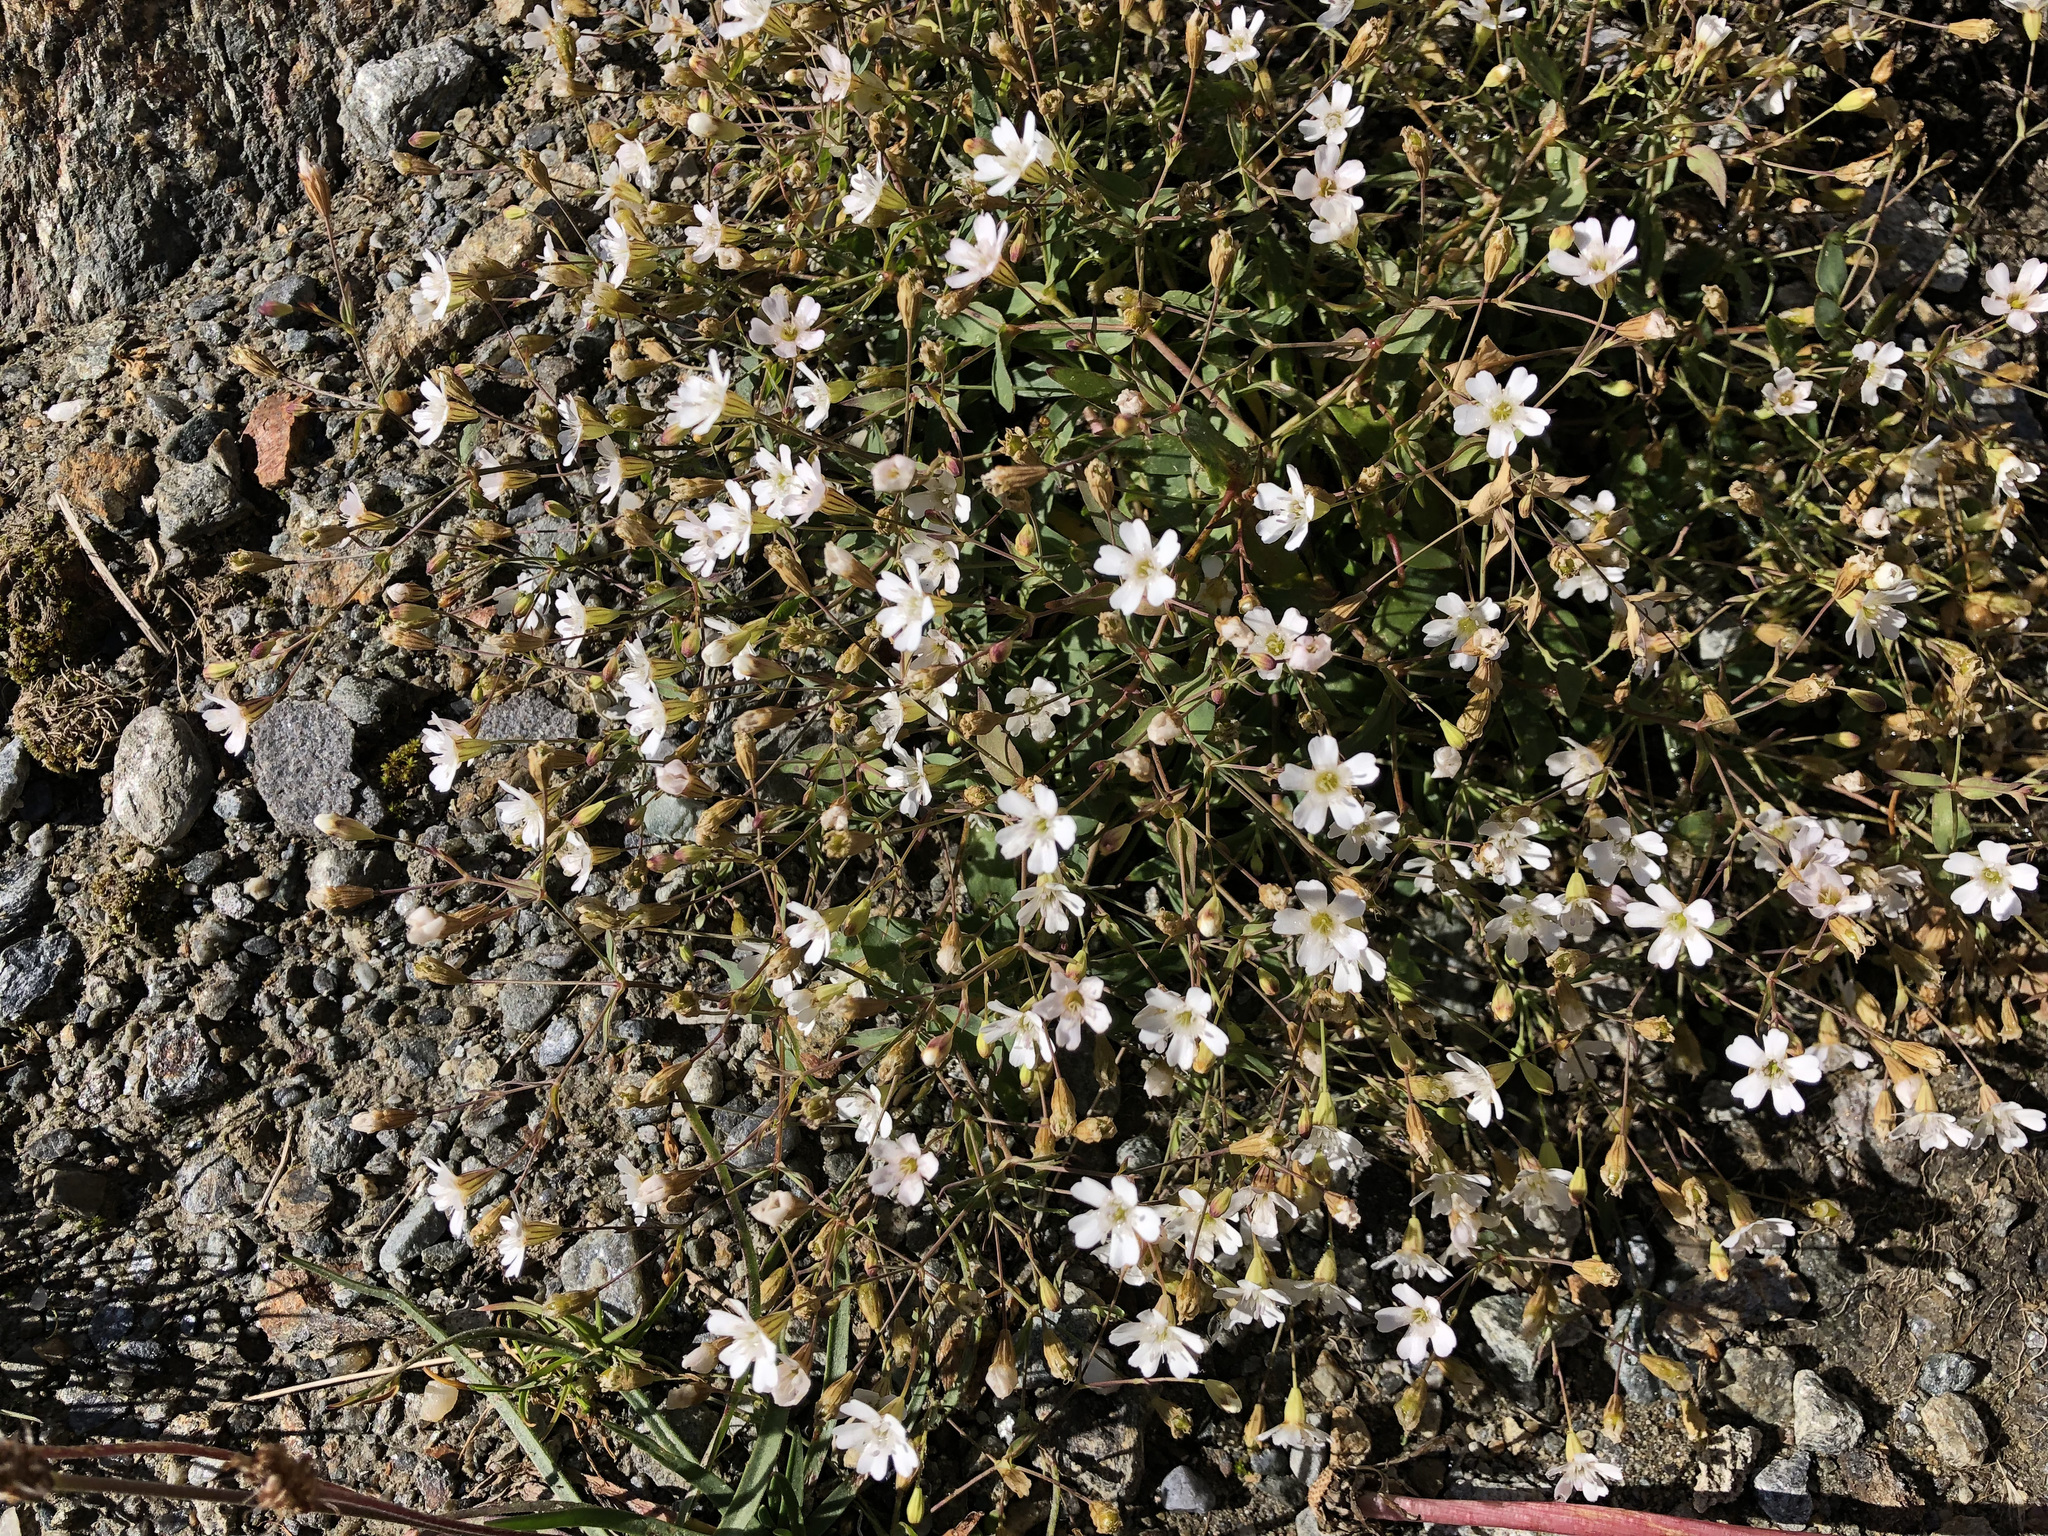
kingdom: Plantae
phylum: Tracheophyta
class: Magnoliopsida
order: Caryophyllales
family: Caryophyllaceae
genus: Atocion
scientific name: Atocion rupestre
